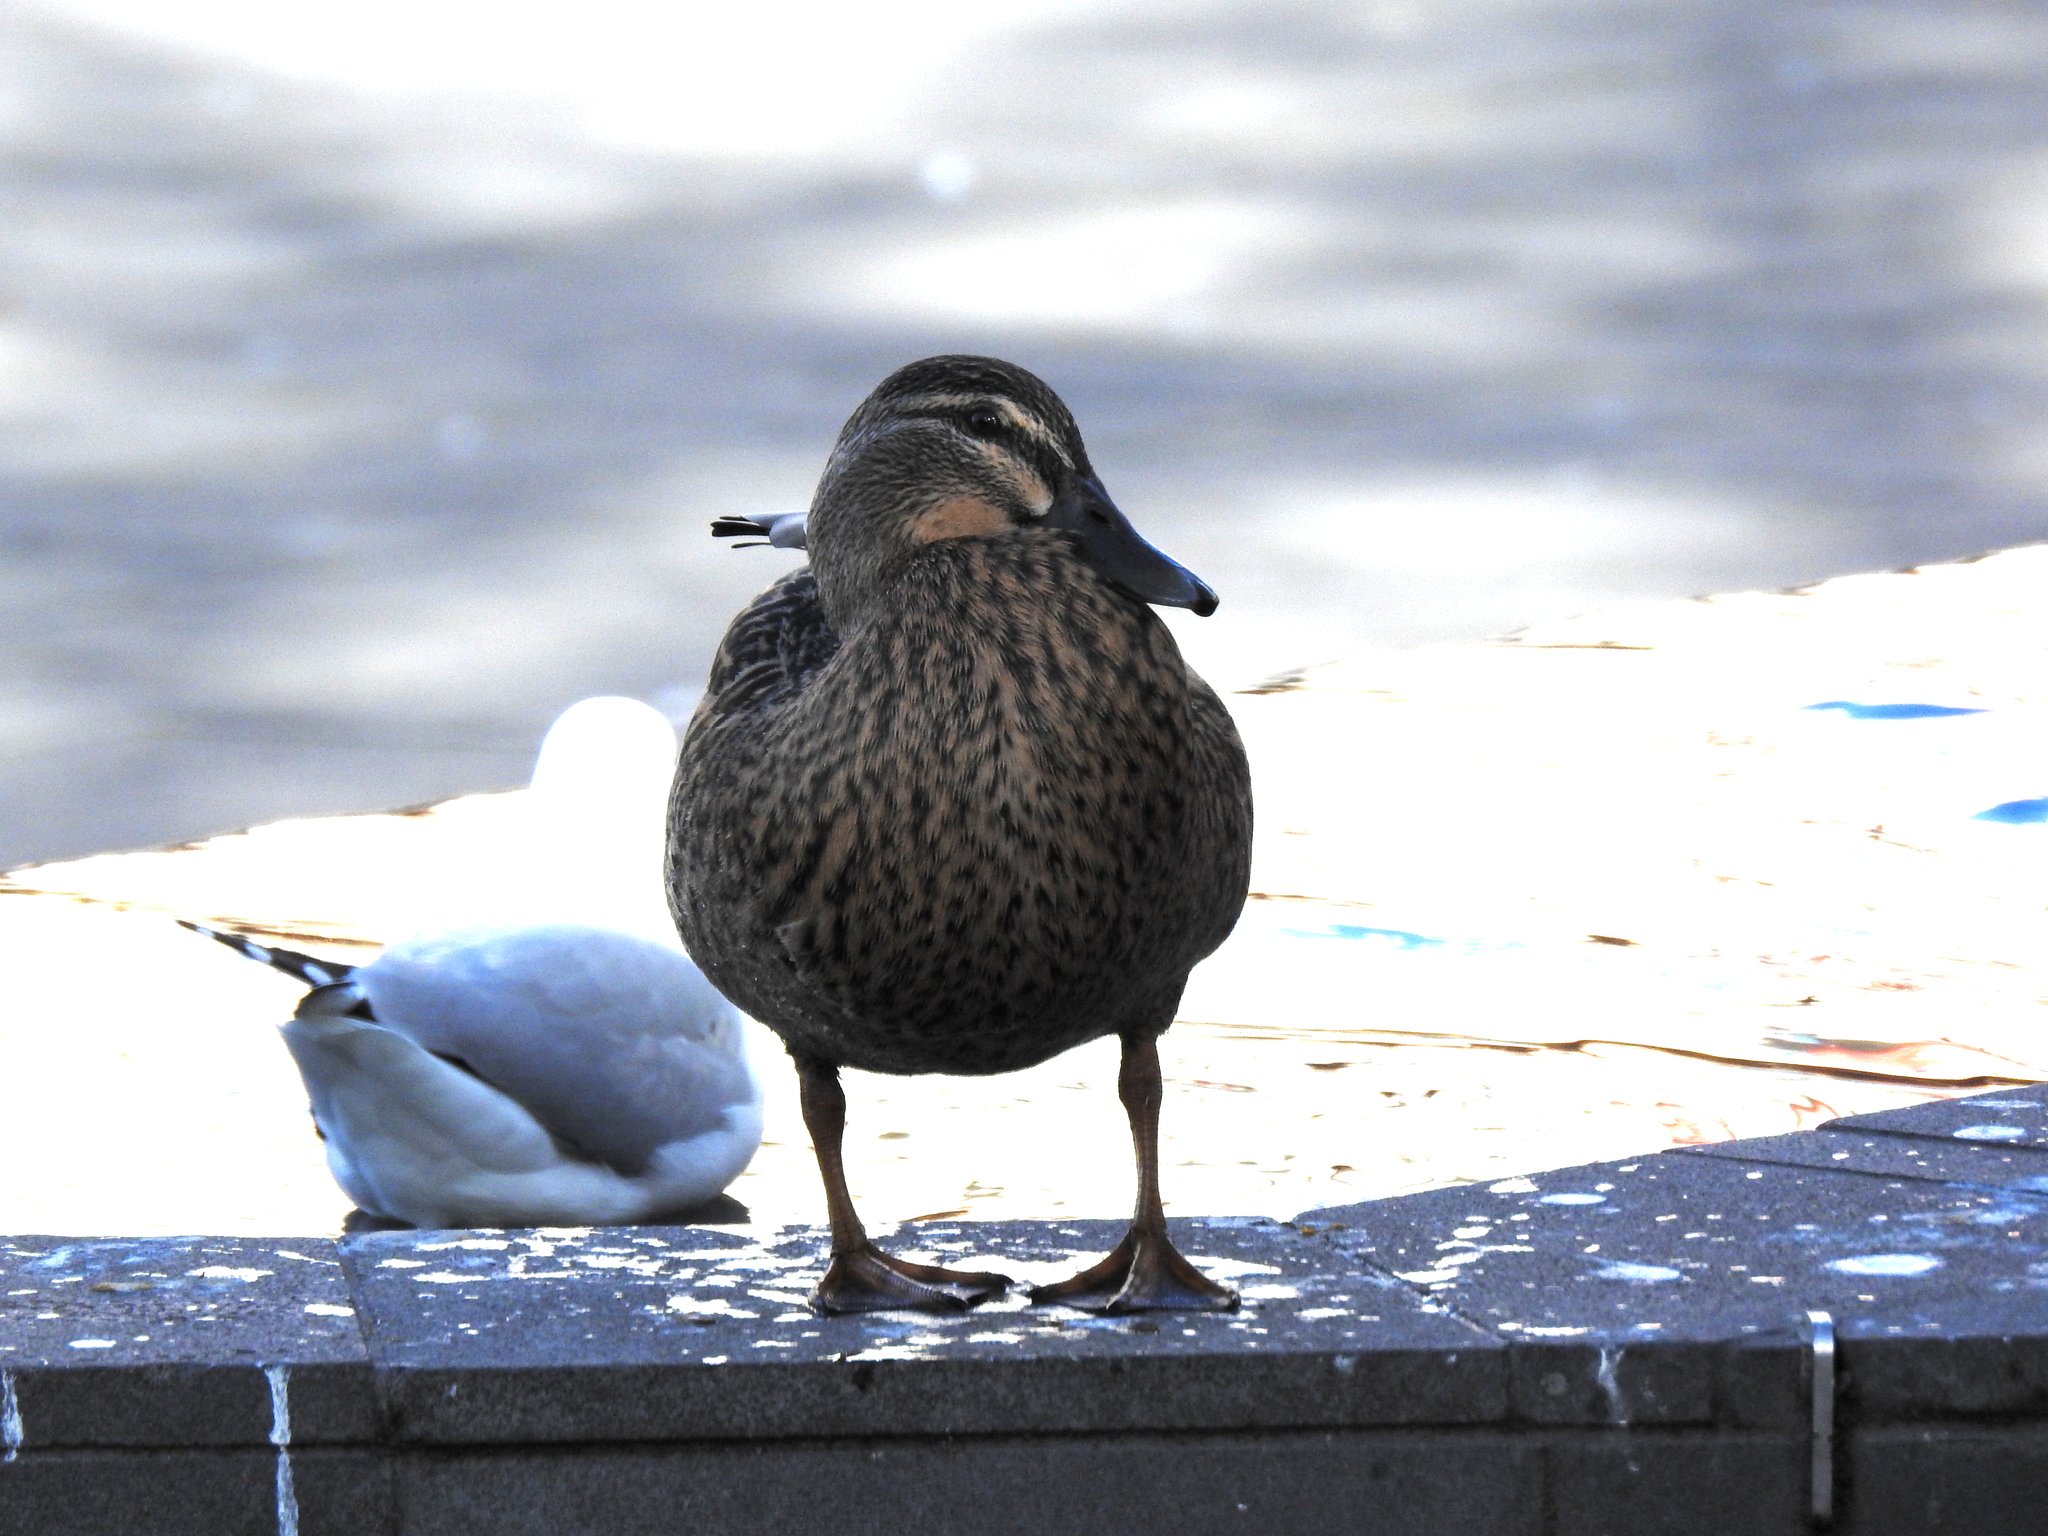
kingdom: Animalia
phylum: Chordata
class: Aves
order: Anseriformes
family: Anatidae
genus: Anas
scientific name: Anas
